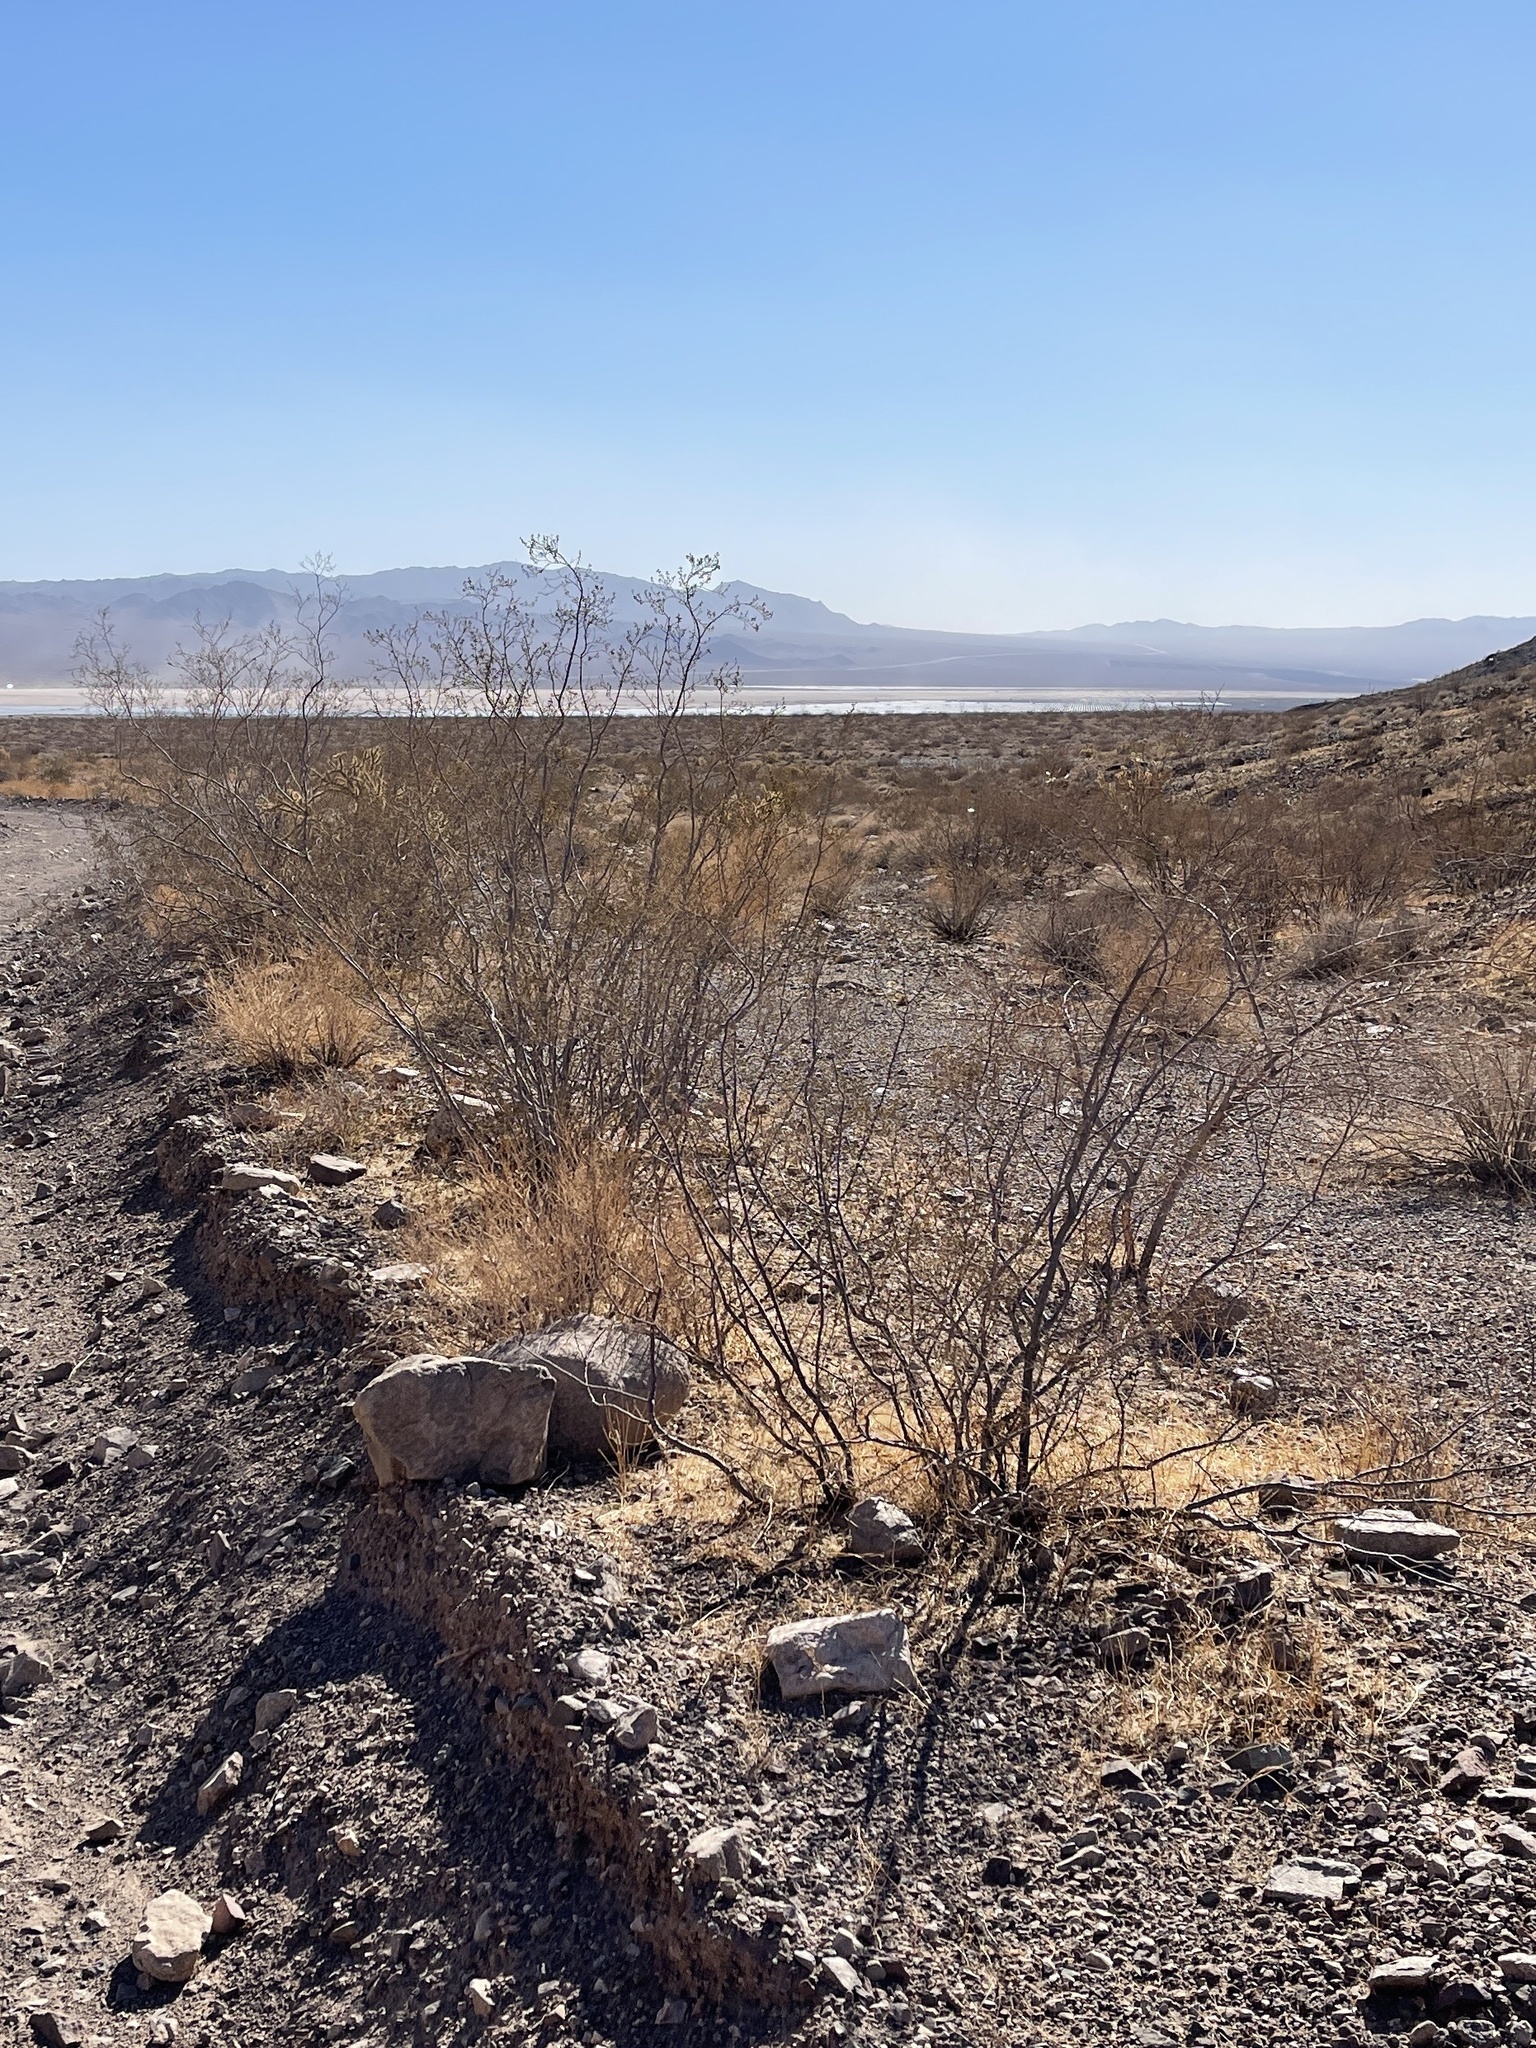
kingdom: Plantae
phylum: Tracheophyta
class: Magnoliopsida
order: Zygophyllales
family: Zygophyllaceae
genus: Larrea
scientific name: Larrea tridentata
